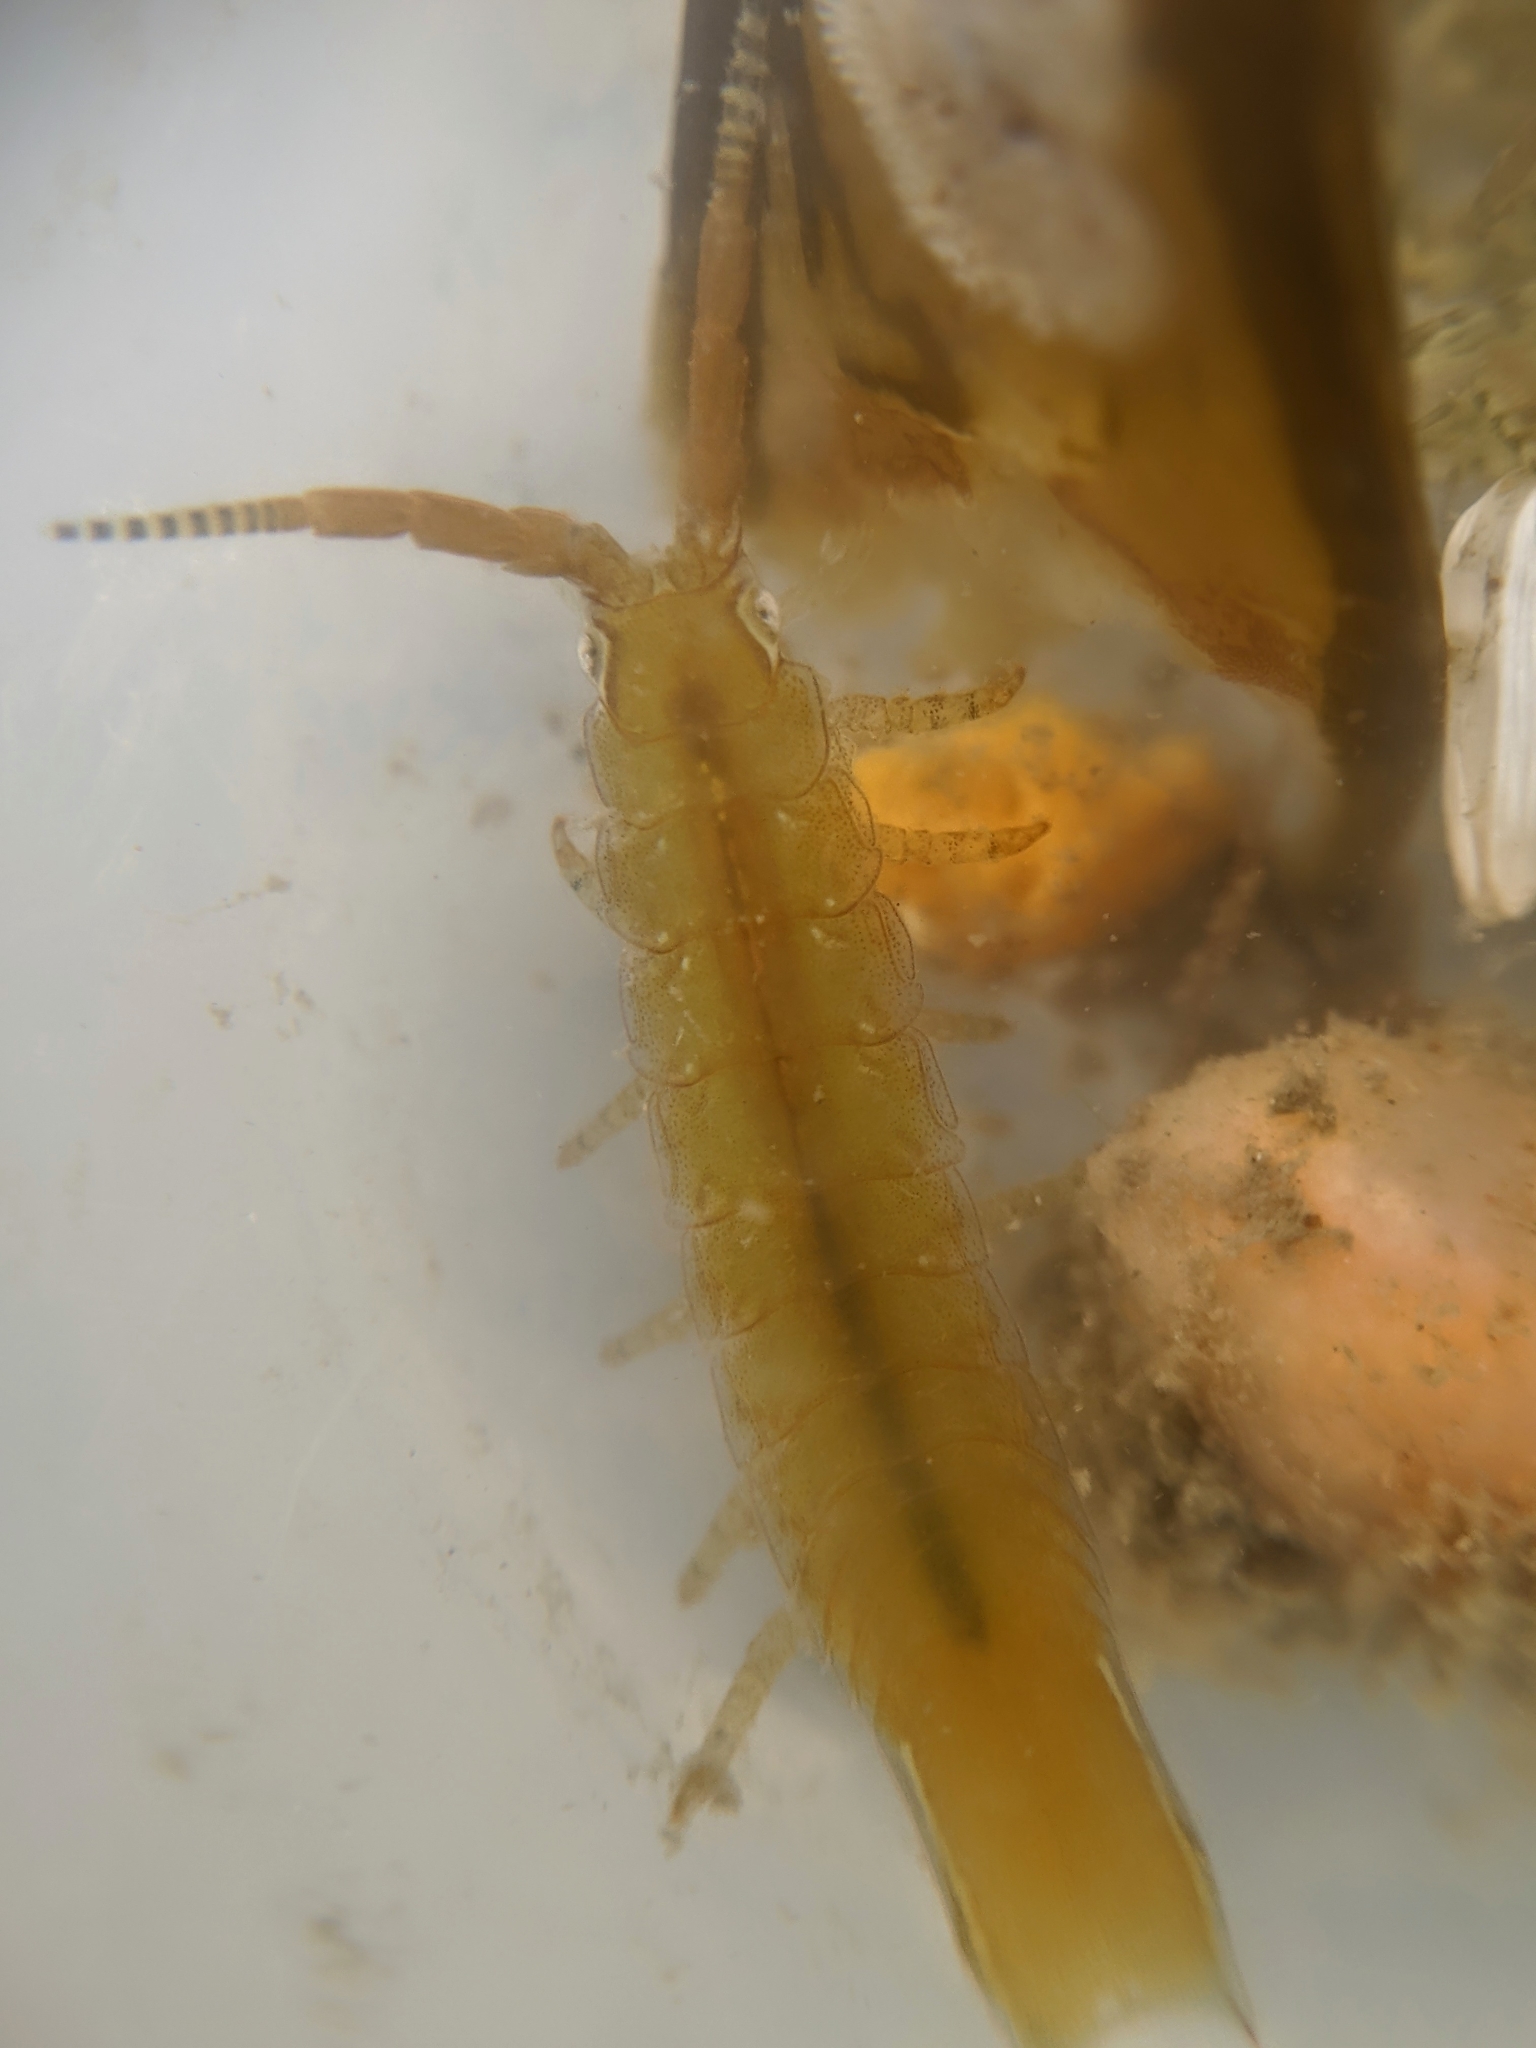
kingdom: Animalia
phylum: Arthropoda
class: Malacostraca
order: Isopoda
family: Idoteidae
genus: Pentidotea
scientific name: Pentidotea resecata
